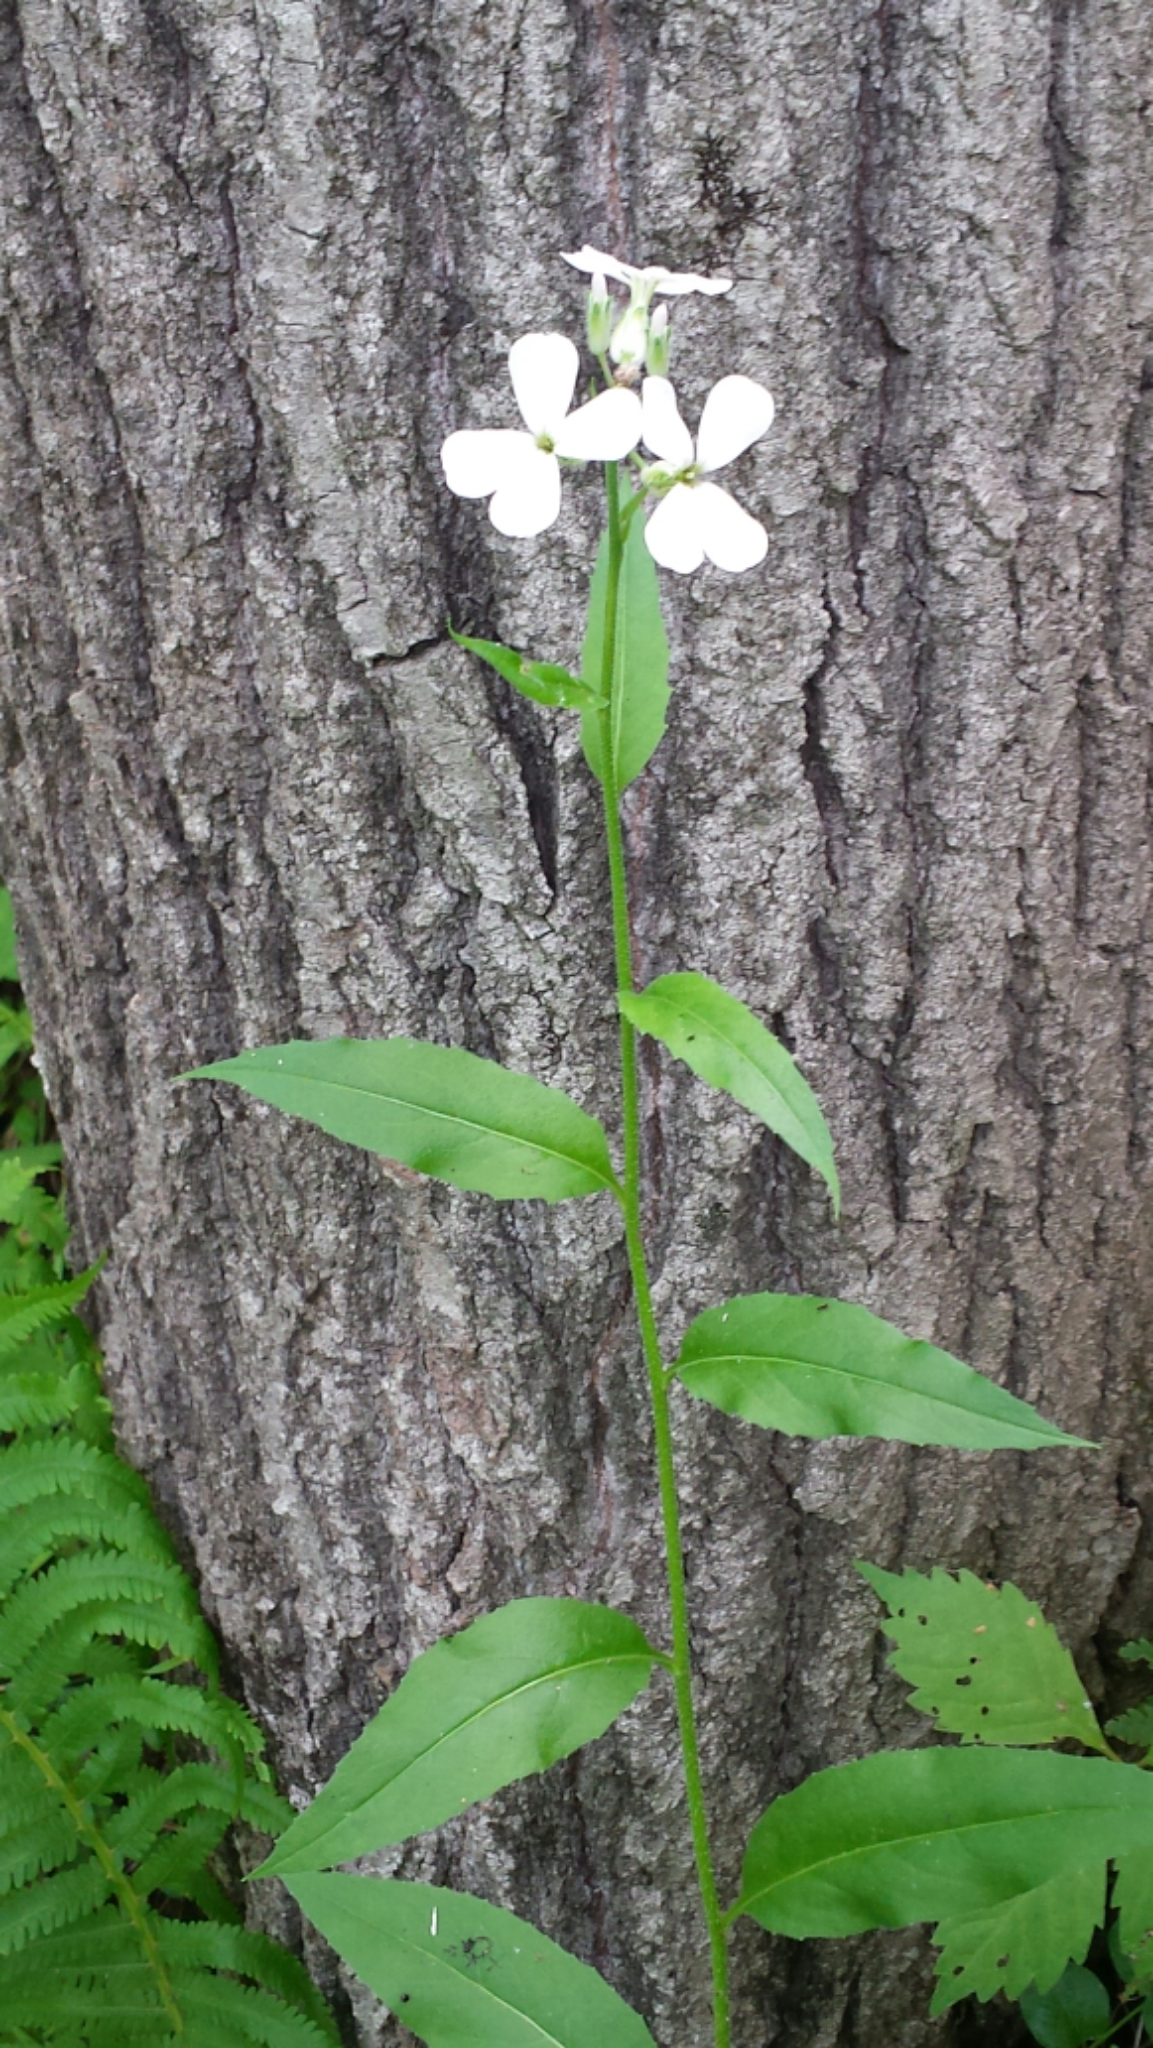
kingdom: Plantae
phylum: Tracheophyta
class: Magnoliopsida
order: Brassicales
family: Brassicaceae
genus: Hesperis
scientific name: Hesperis matronalis
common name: Dame's-violet
